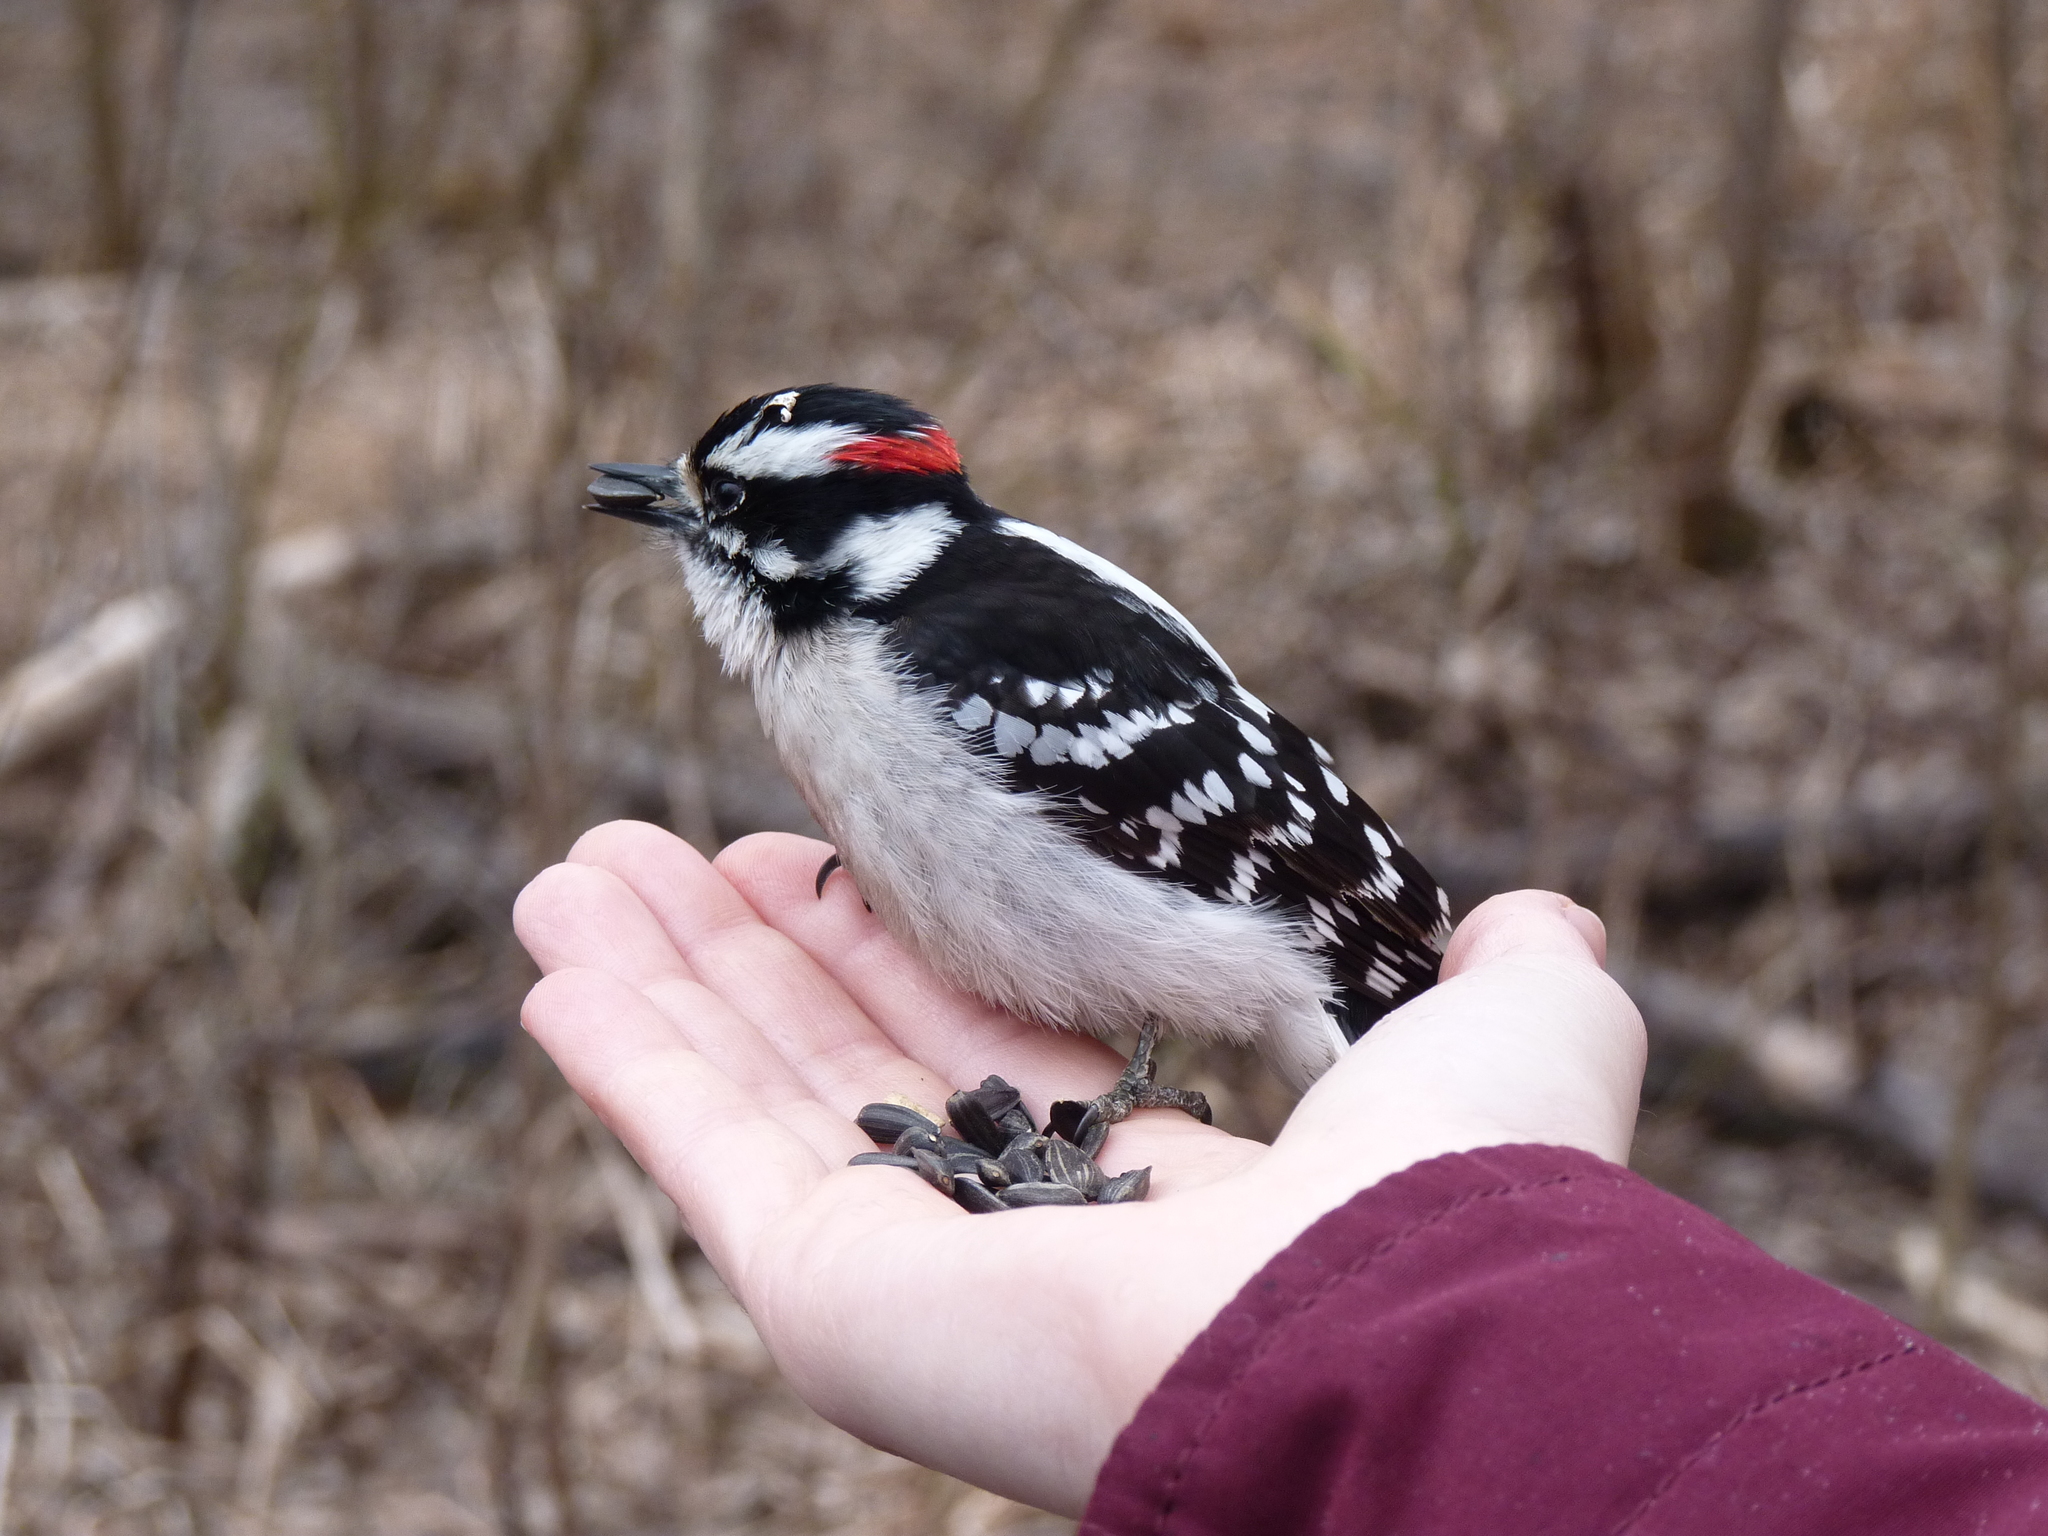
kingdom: Animalia
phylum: Chordata
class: Aves
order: Piciformes
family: Picidae
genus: Dryobates
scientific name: Dryobates pubescens
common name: Downy woodpecker
